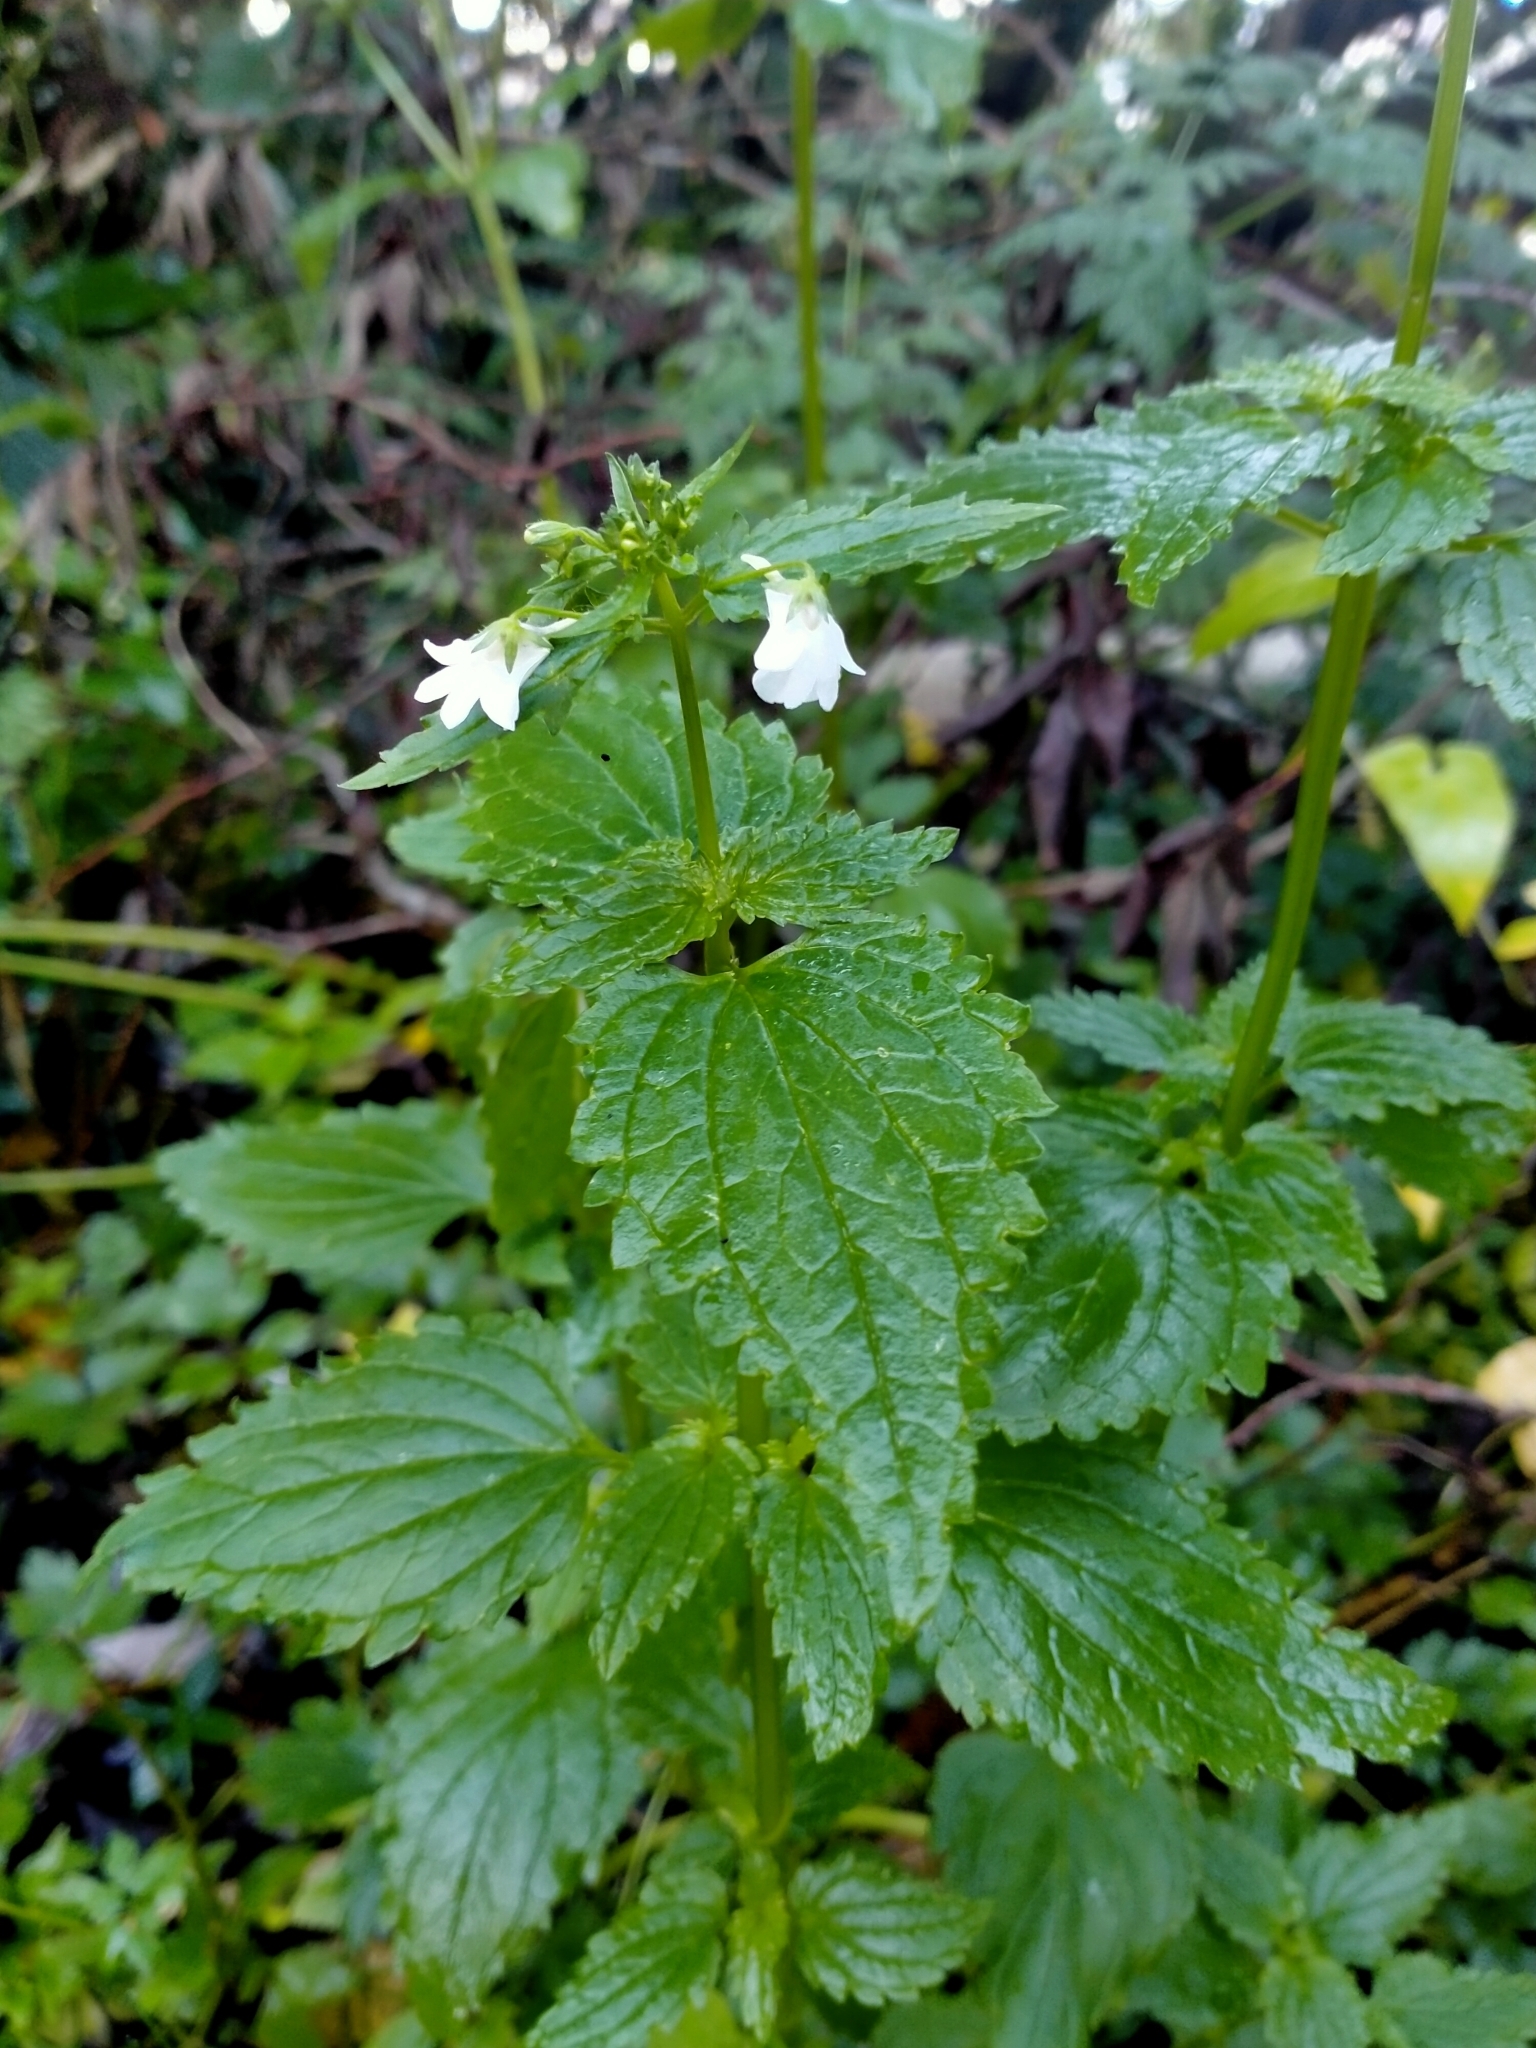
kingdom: Plantae
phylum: Tracheophyta
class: Magnoliopsida
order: Lamiales
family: Scrophulariaceae
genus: Nemesia
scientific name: Nemesia floribunda
